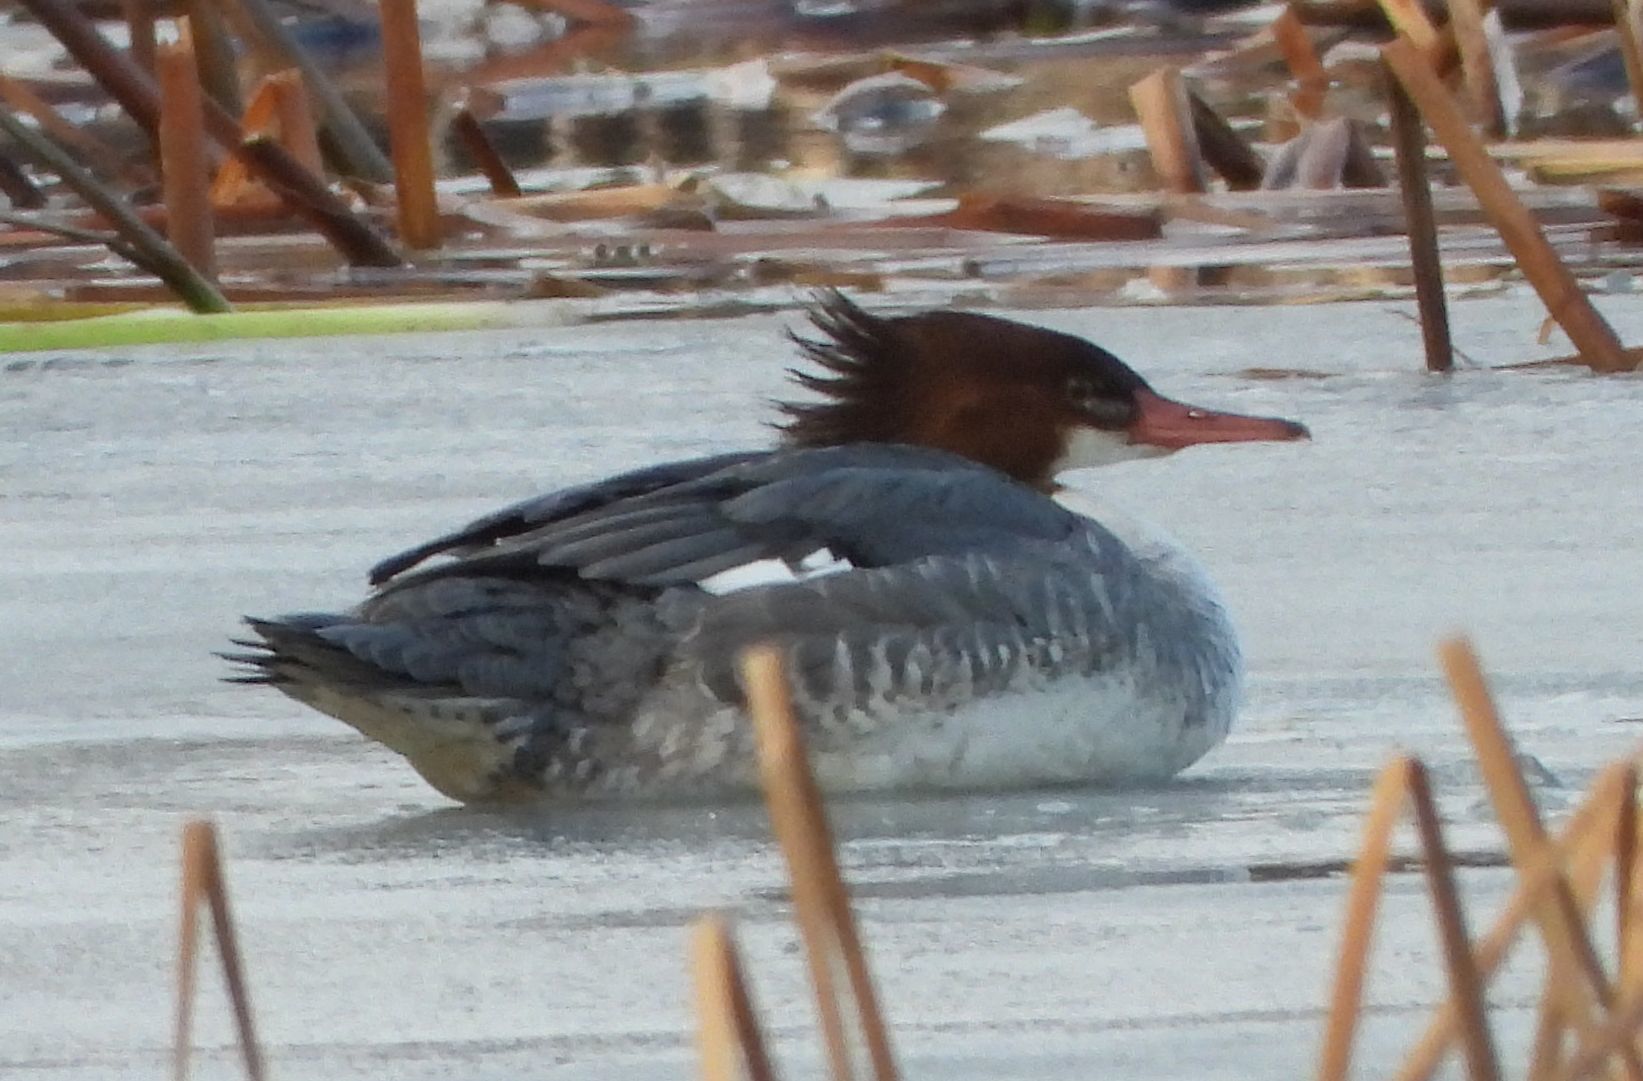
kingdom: Animalia
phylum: Chordata
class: Aves
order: Anseriformes
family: Anatidae
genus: Mergus
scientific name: Mergus merganser
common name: Common merganser
